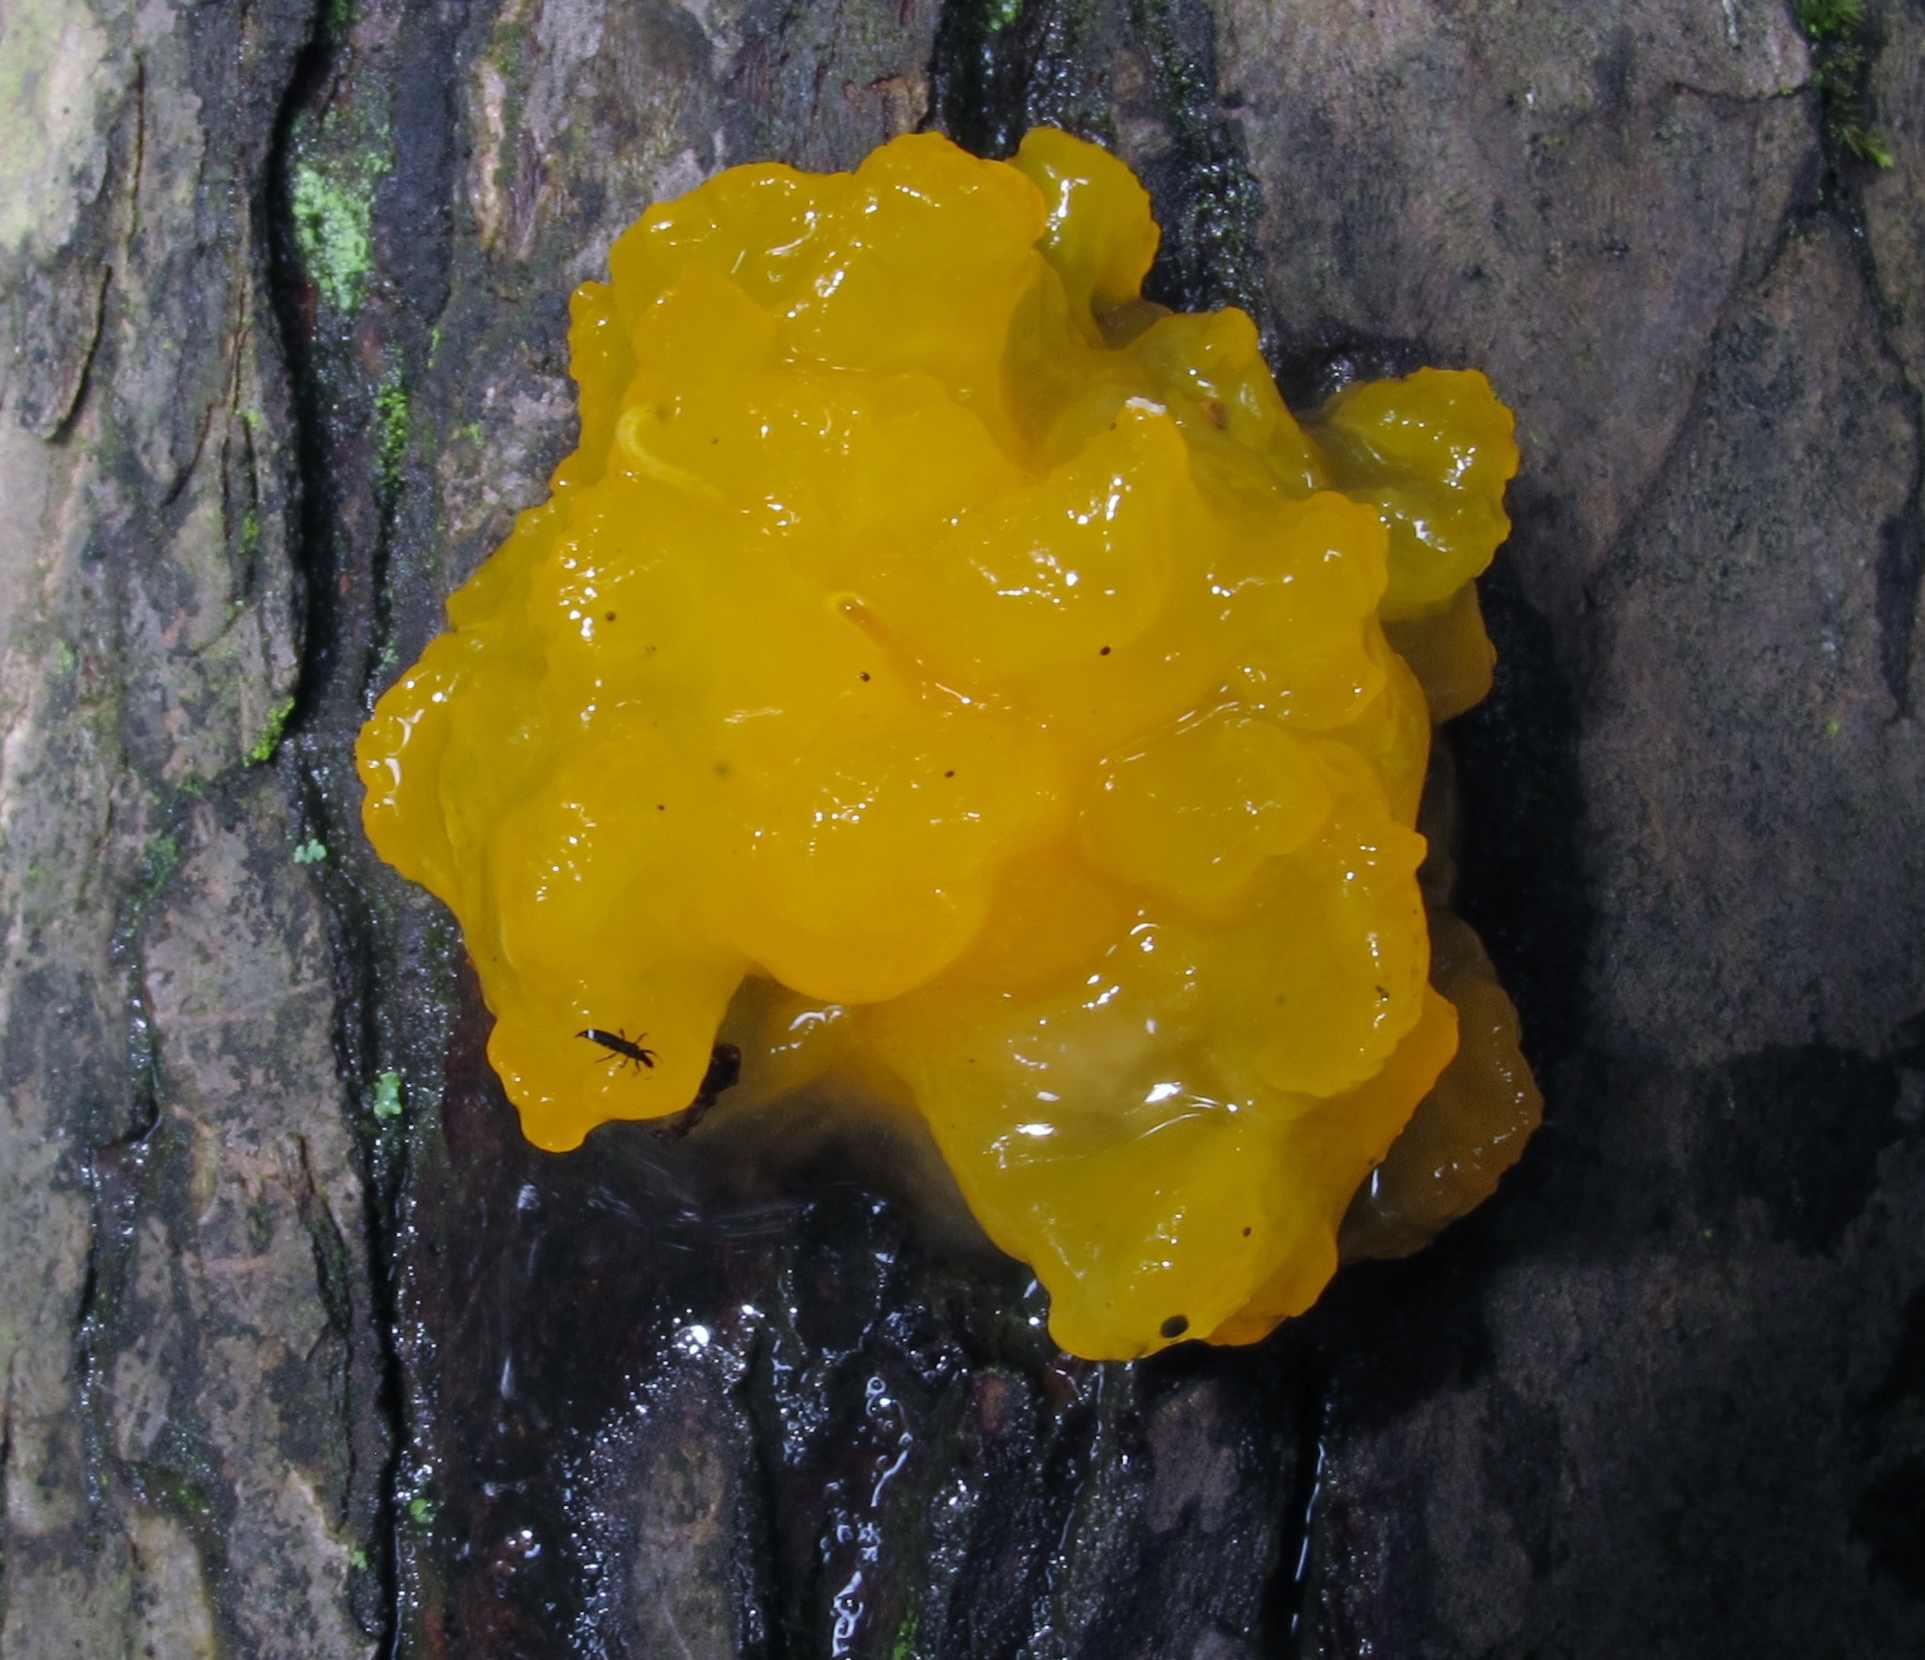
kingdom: Fungi
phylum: Basidiomycota
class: Tremellomycetes
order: Tremellales
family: Tremellaceae
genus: Tremella
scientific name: Tremella mesenterica
